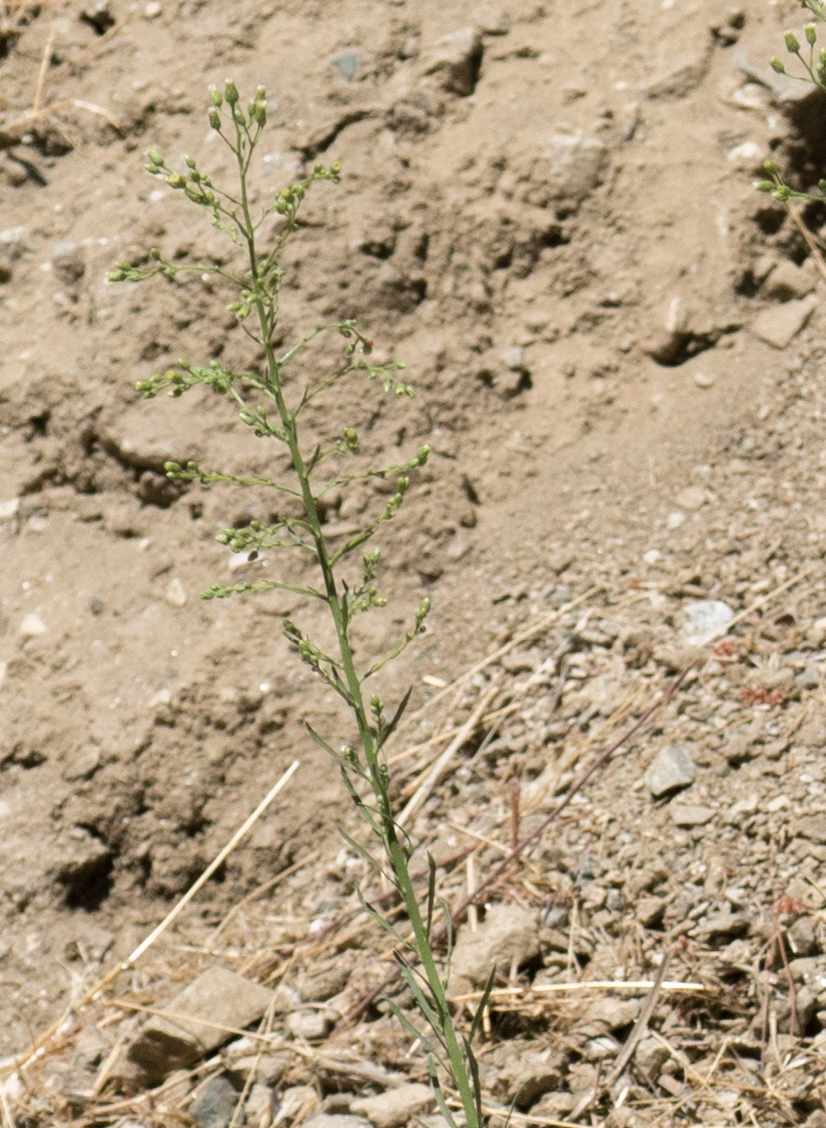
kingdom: Plantae
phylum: Tracheophyta
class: Magnoliopsida
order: Asterales
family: Asteraceae
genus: Erigeron
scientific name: Erigeron canadensis
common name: Canadian fleabane
